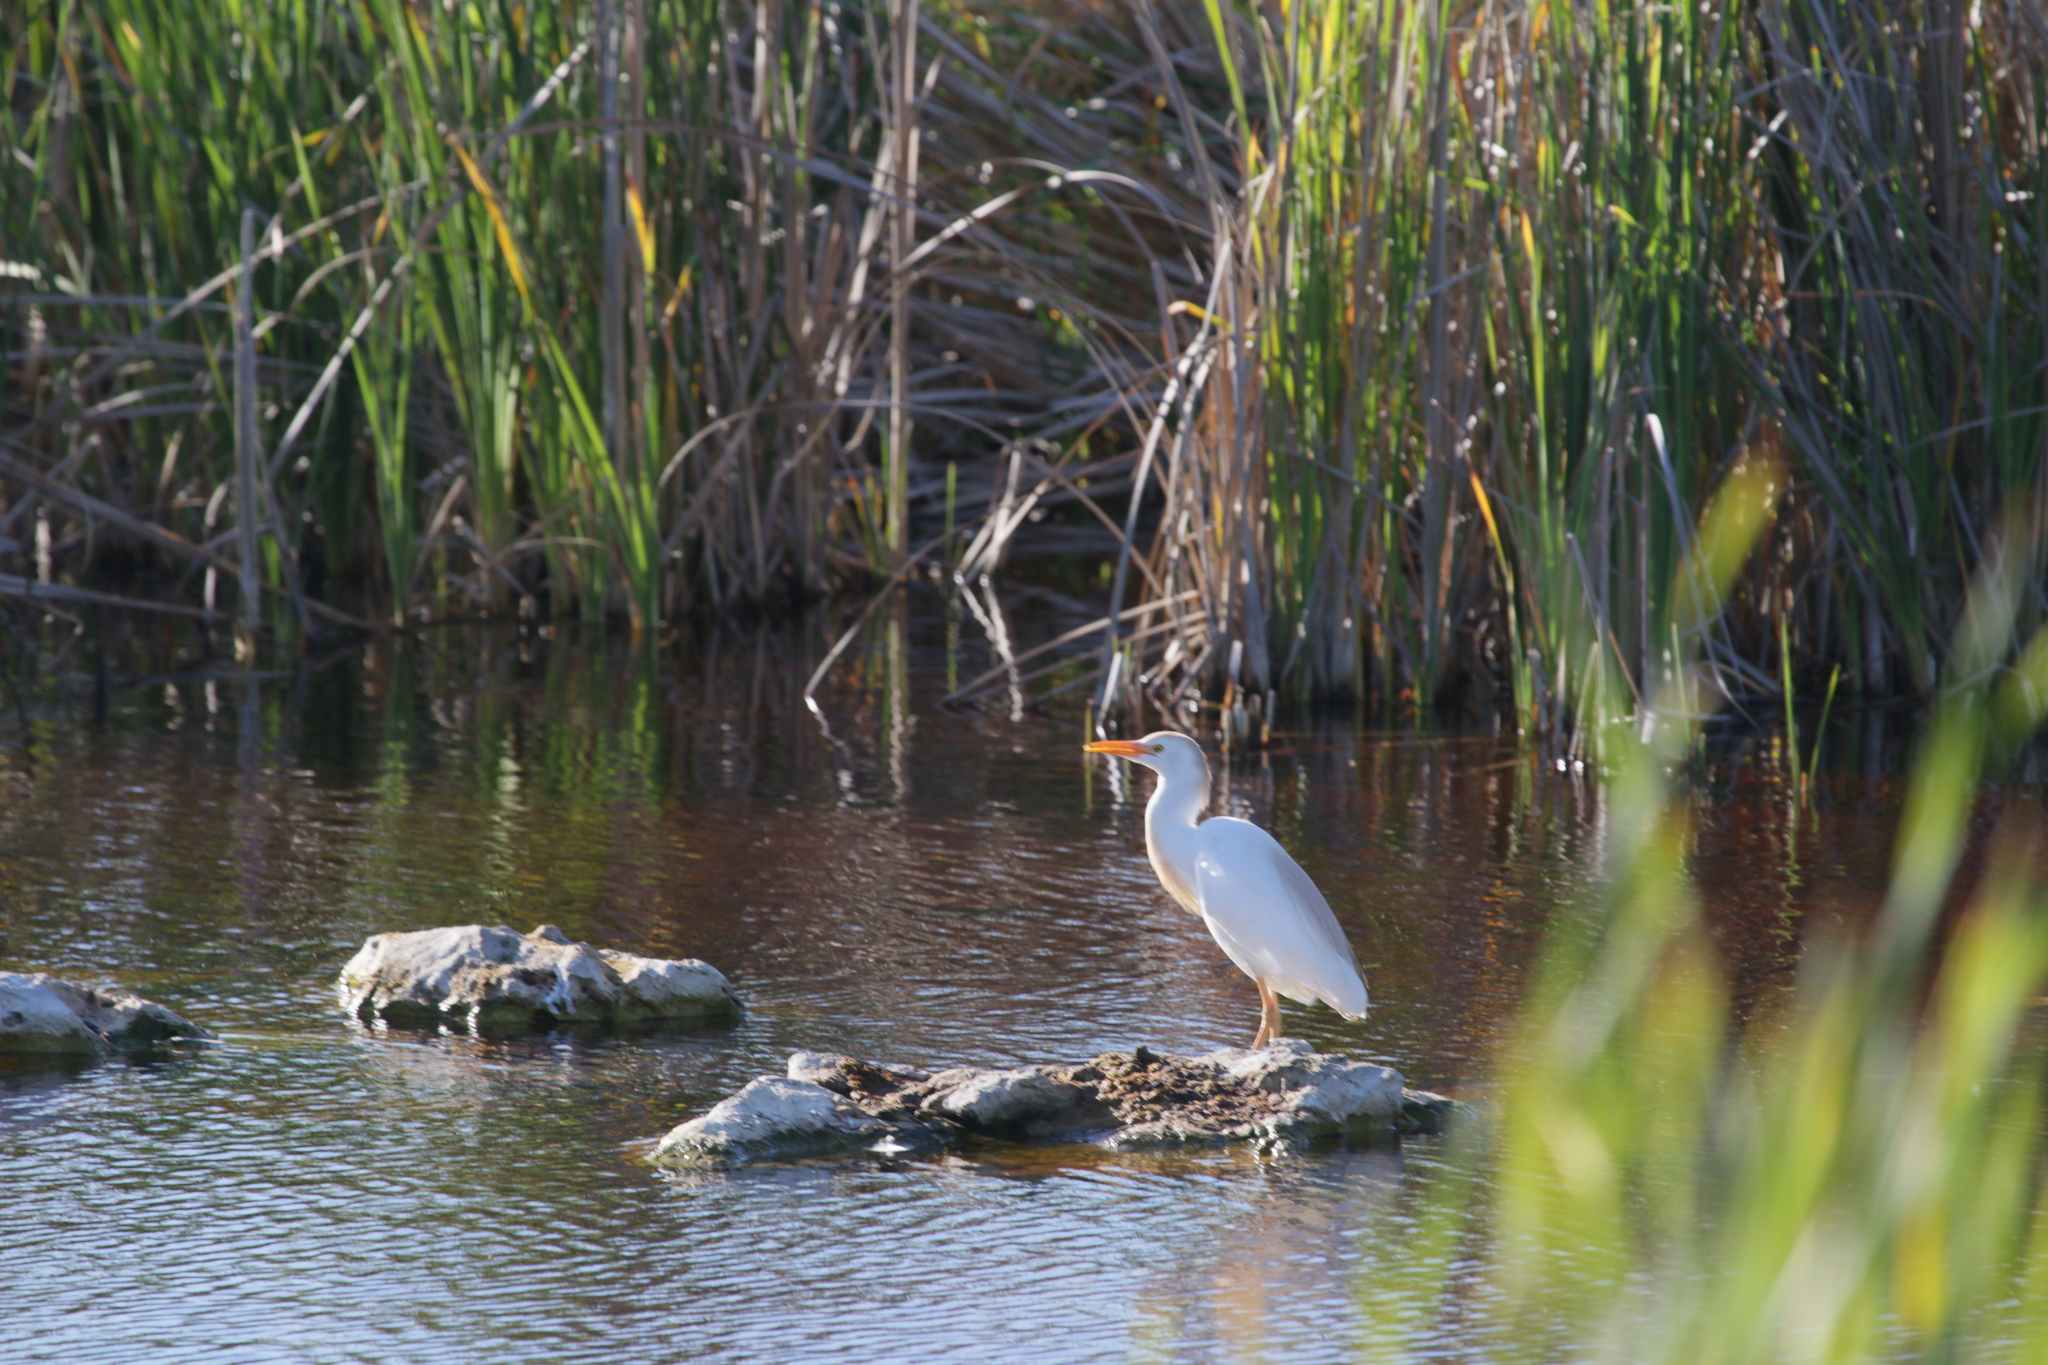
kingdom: Animalia
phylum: Chordata
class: Aves
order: Pelecaniformes
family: Ardeidae
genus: Bubulcus
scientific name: Bubulcus ibis
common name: Cattle egret
